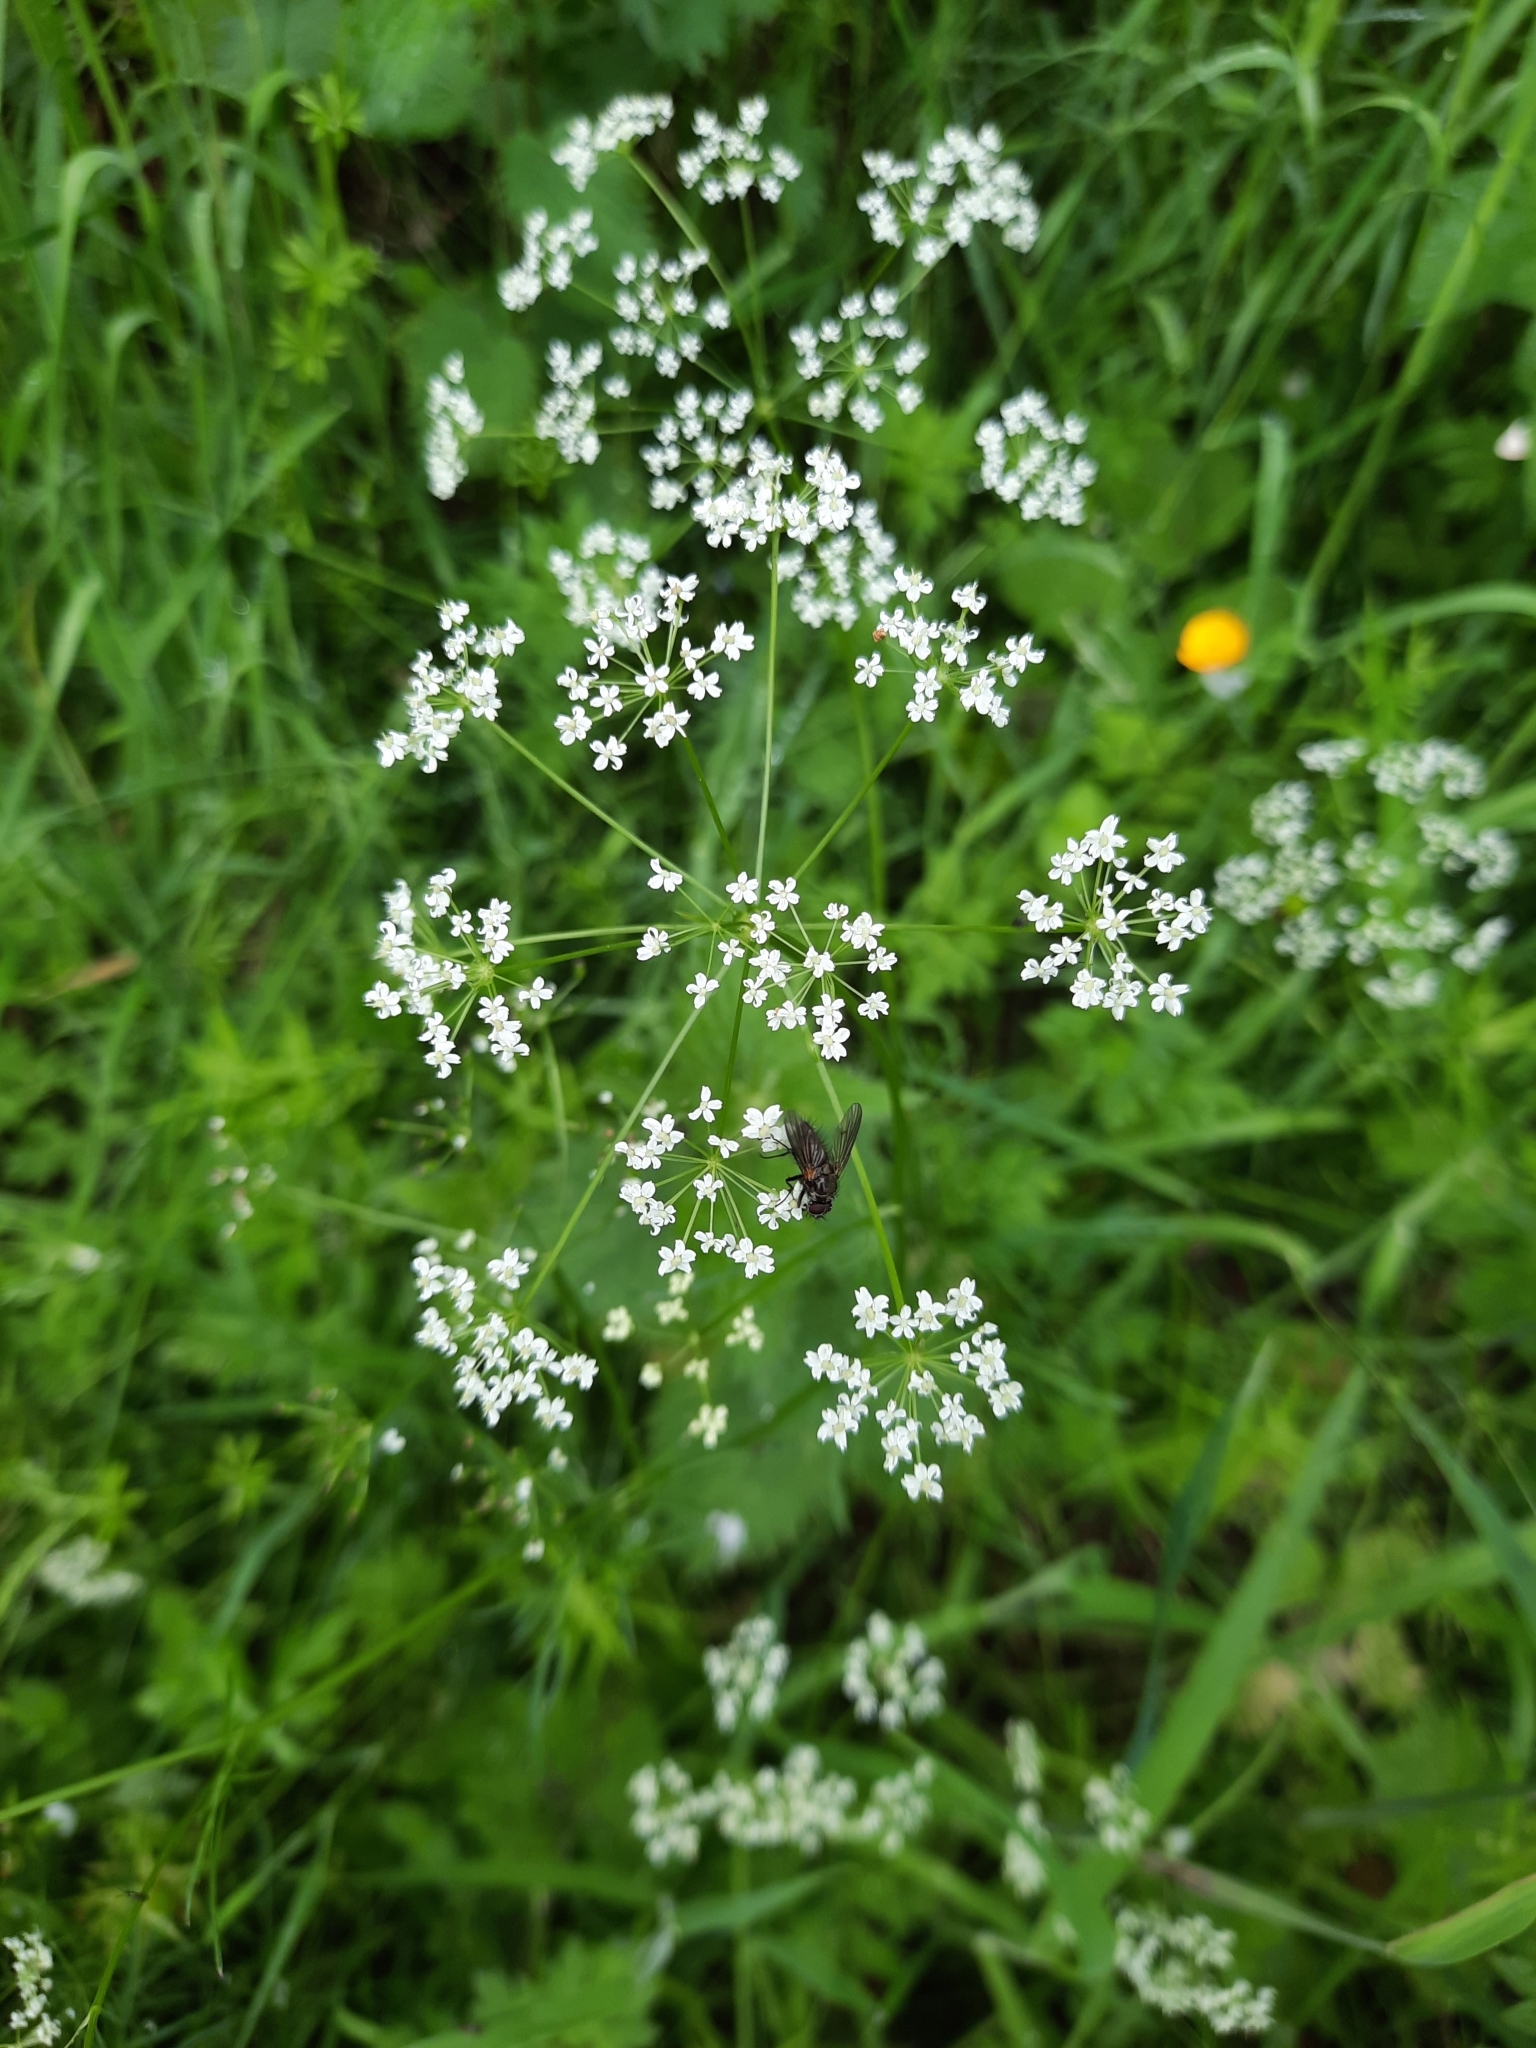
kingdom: Plantae
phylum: Tracheophyta
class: Magnoliopsida
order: Apiales
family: Apiaceae
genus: Conopodium
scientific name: Conopodium majus
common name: Pignut
